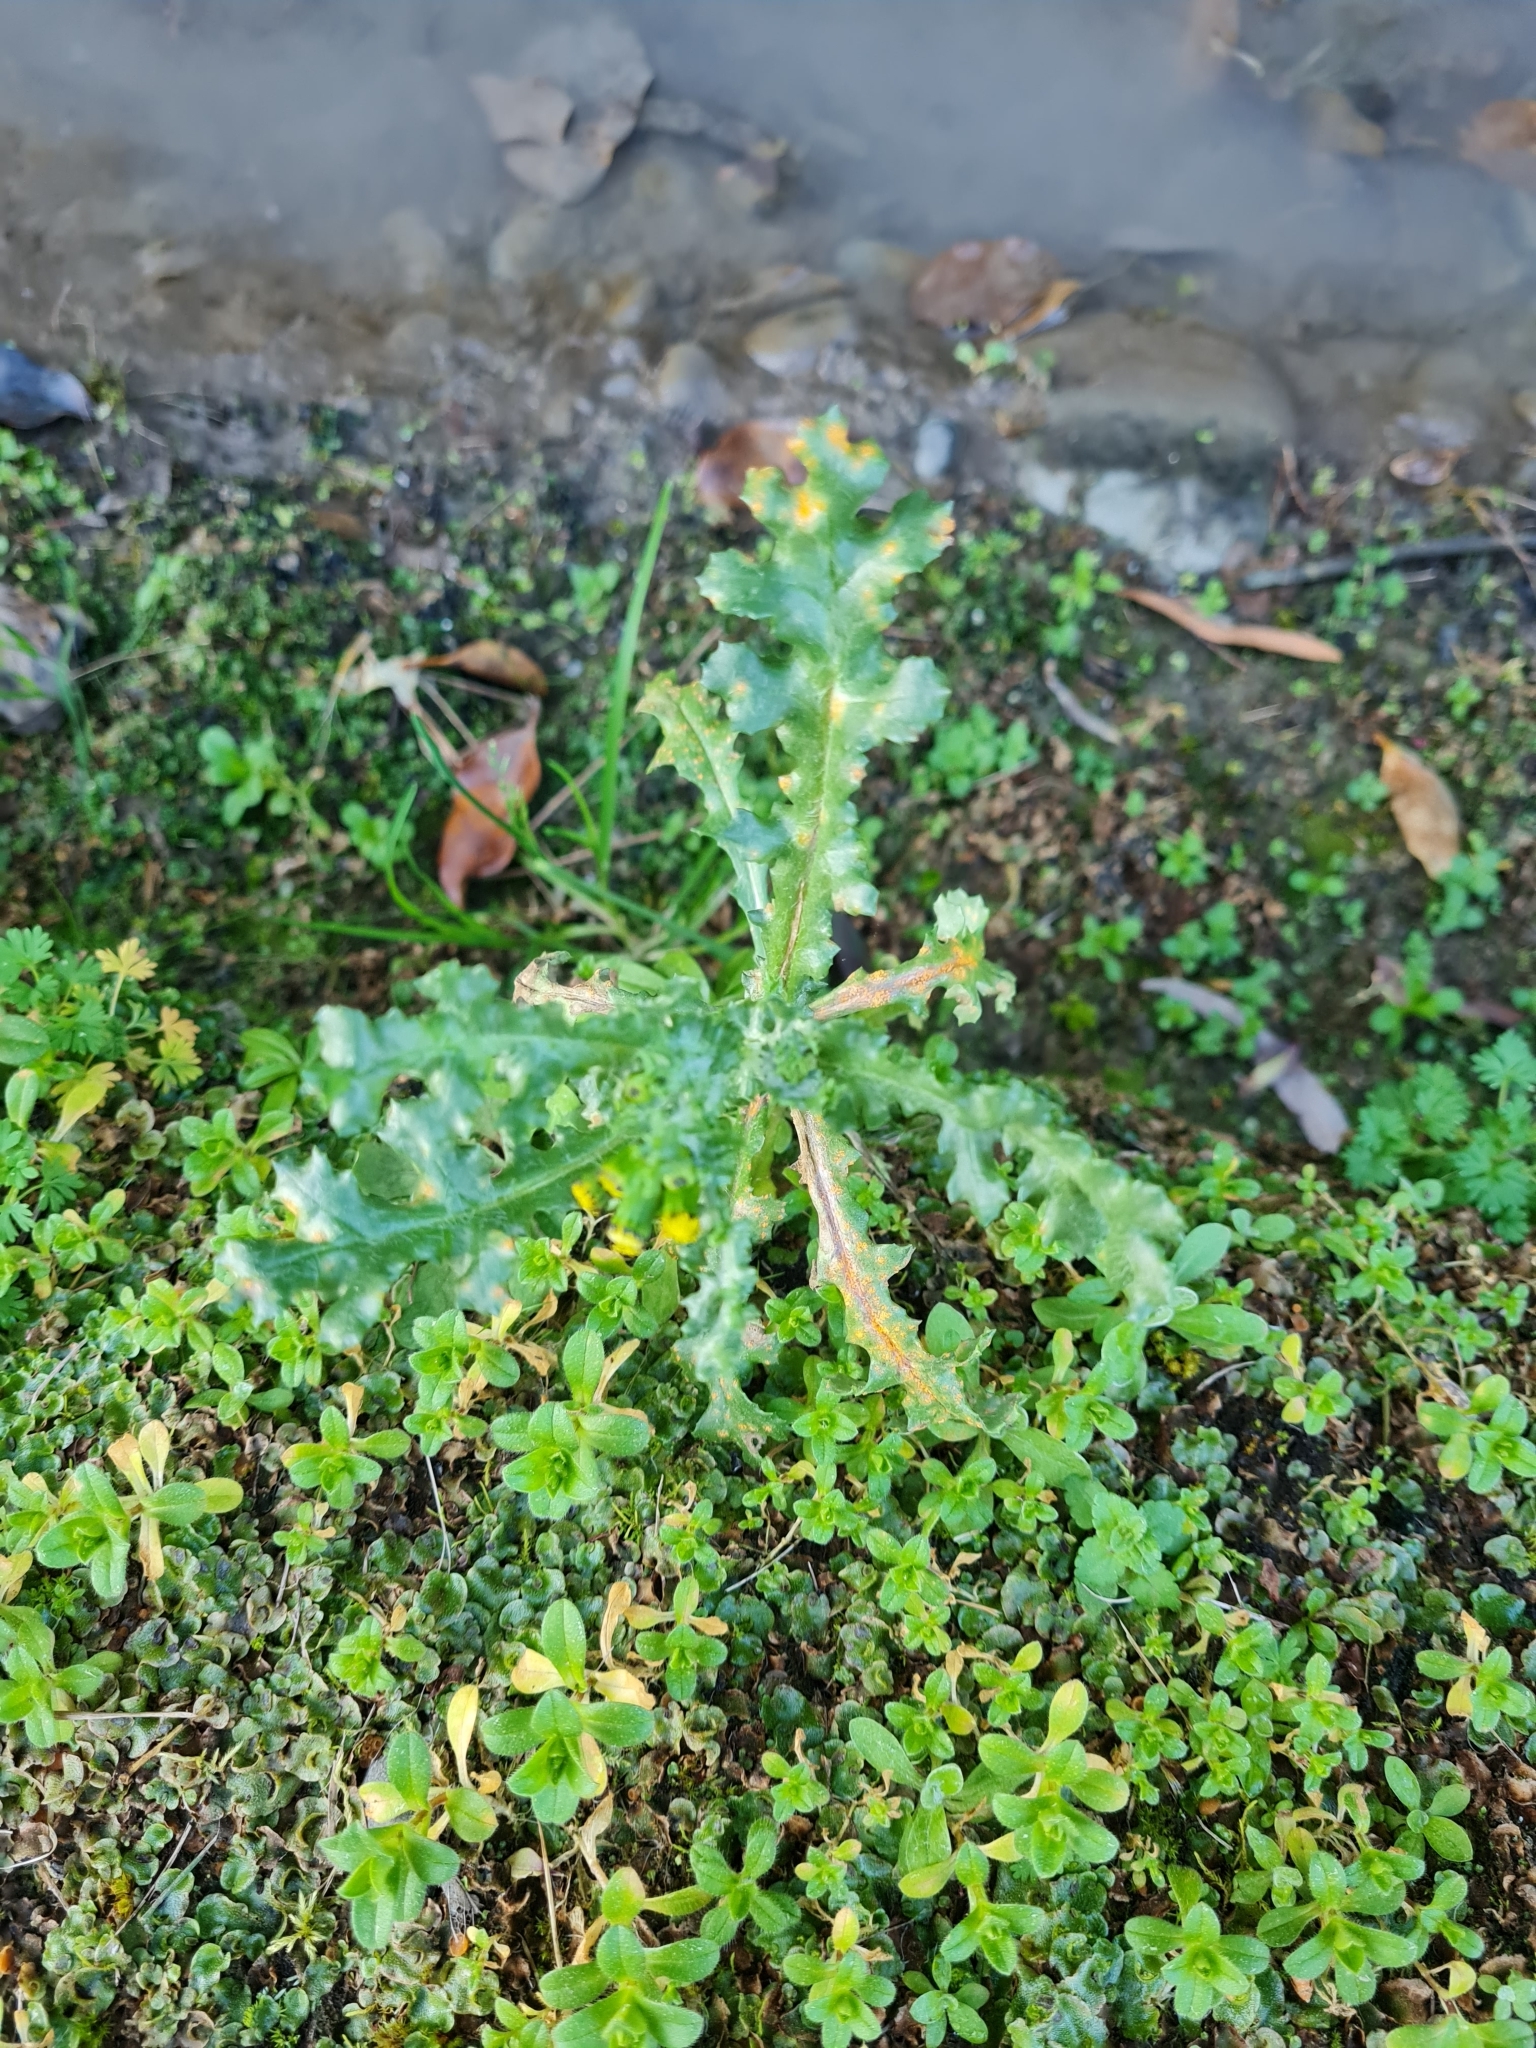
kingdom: Plantae
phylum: Tracheophyta
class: Magnoliopsida
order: Asterales
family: Asteraceae
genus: Senecio
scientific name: Senecio vulgaris
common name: Old-man-in-the-spring
